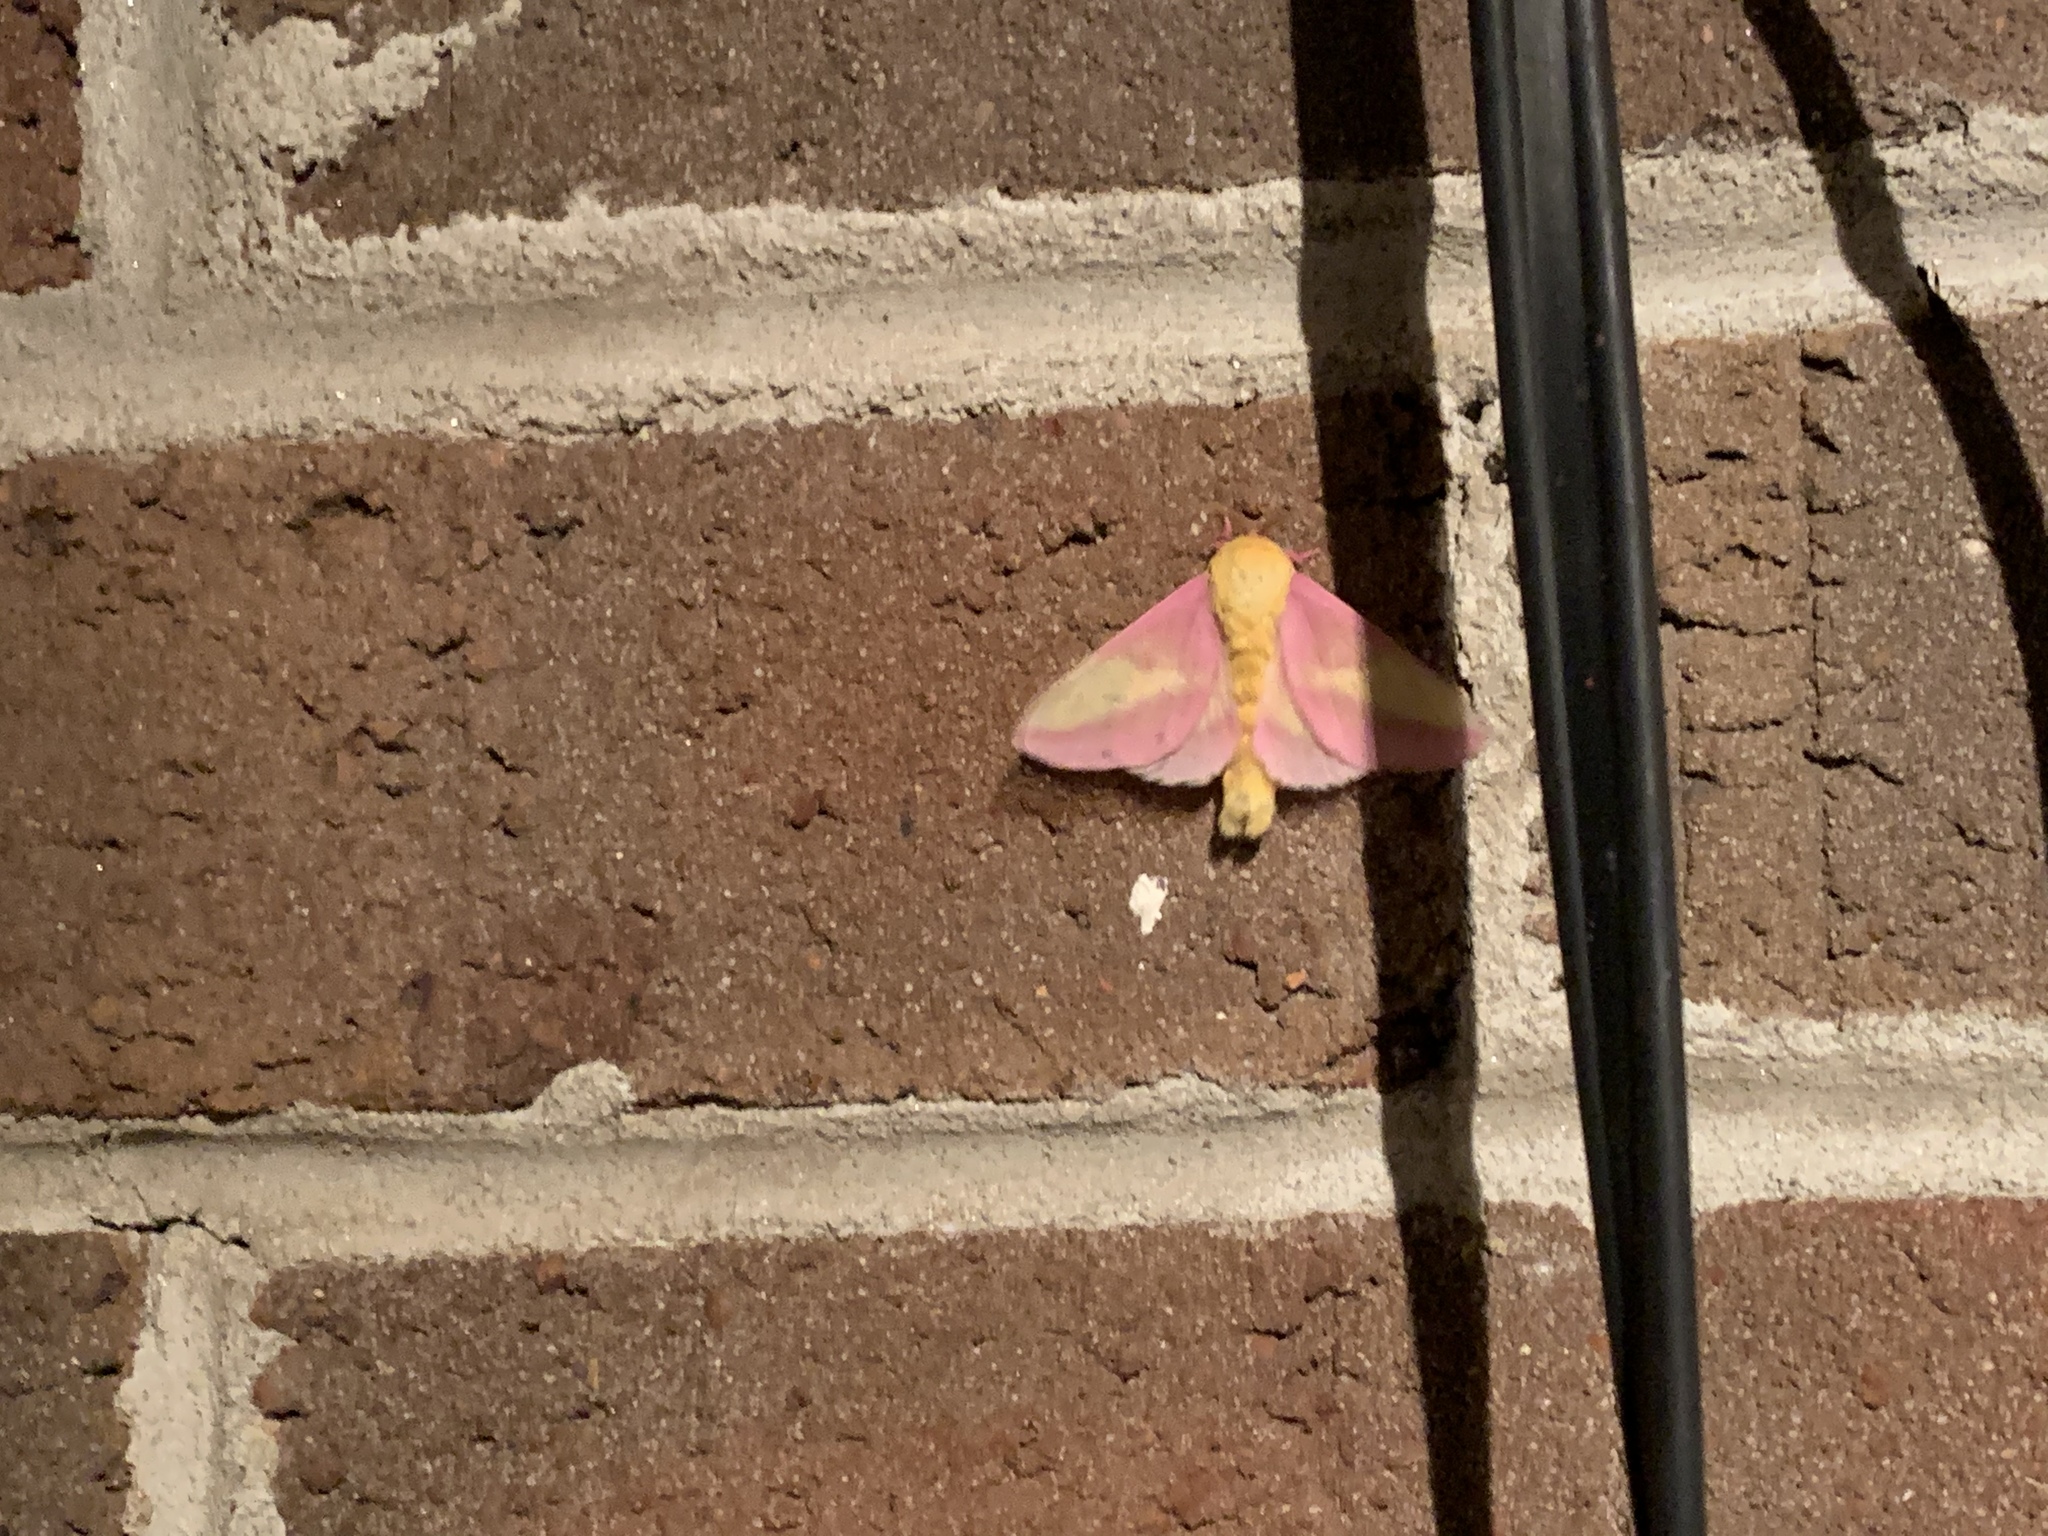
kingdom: Animalia
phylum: Arthropoda
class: Insecta
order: Lepidoptera
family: Saturniidae
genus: Dryocampa
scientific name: Dryocampa rubicunda
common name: Rosy maple moth
